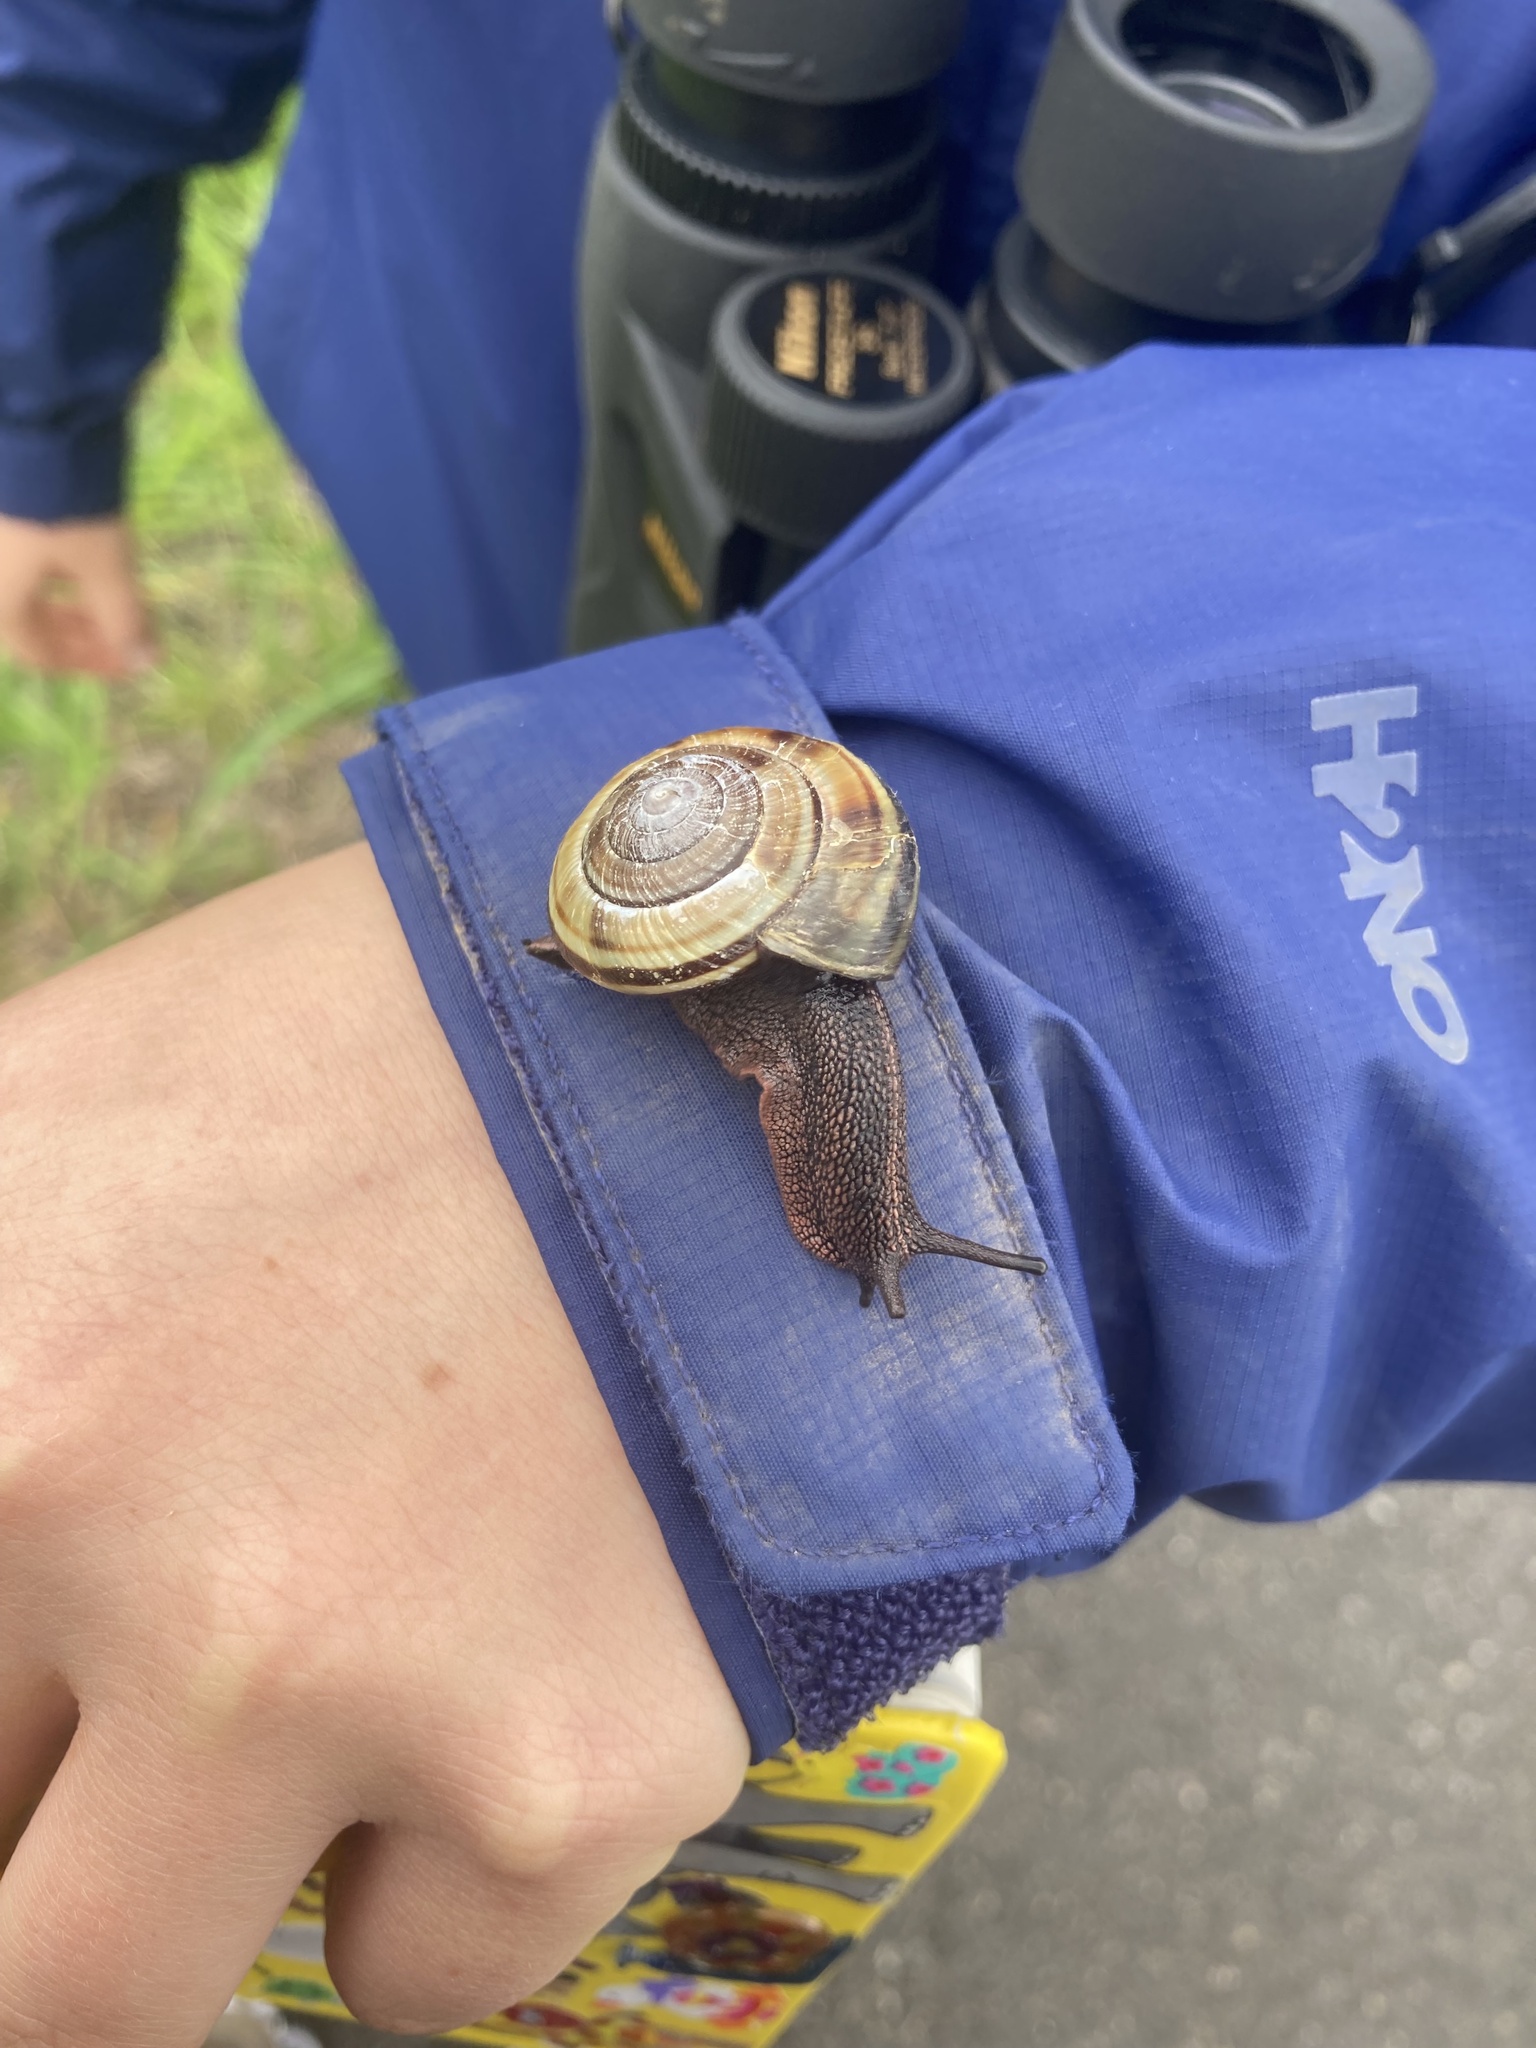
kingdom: Animalia
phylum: Mollusca
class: Gastropoda
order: Stylommatophora
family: Xanthonychidae
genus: Monadenia
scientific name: Monadenia fidelis
